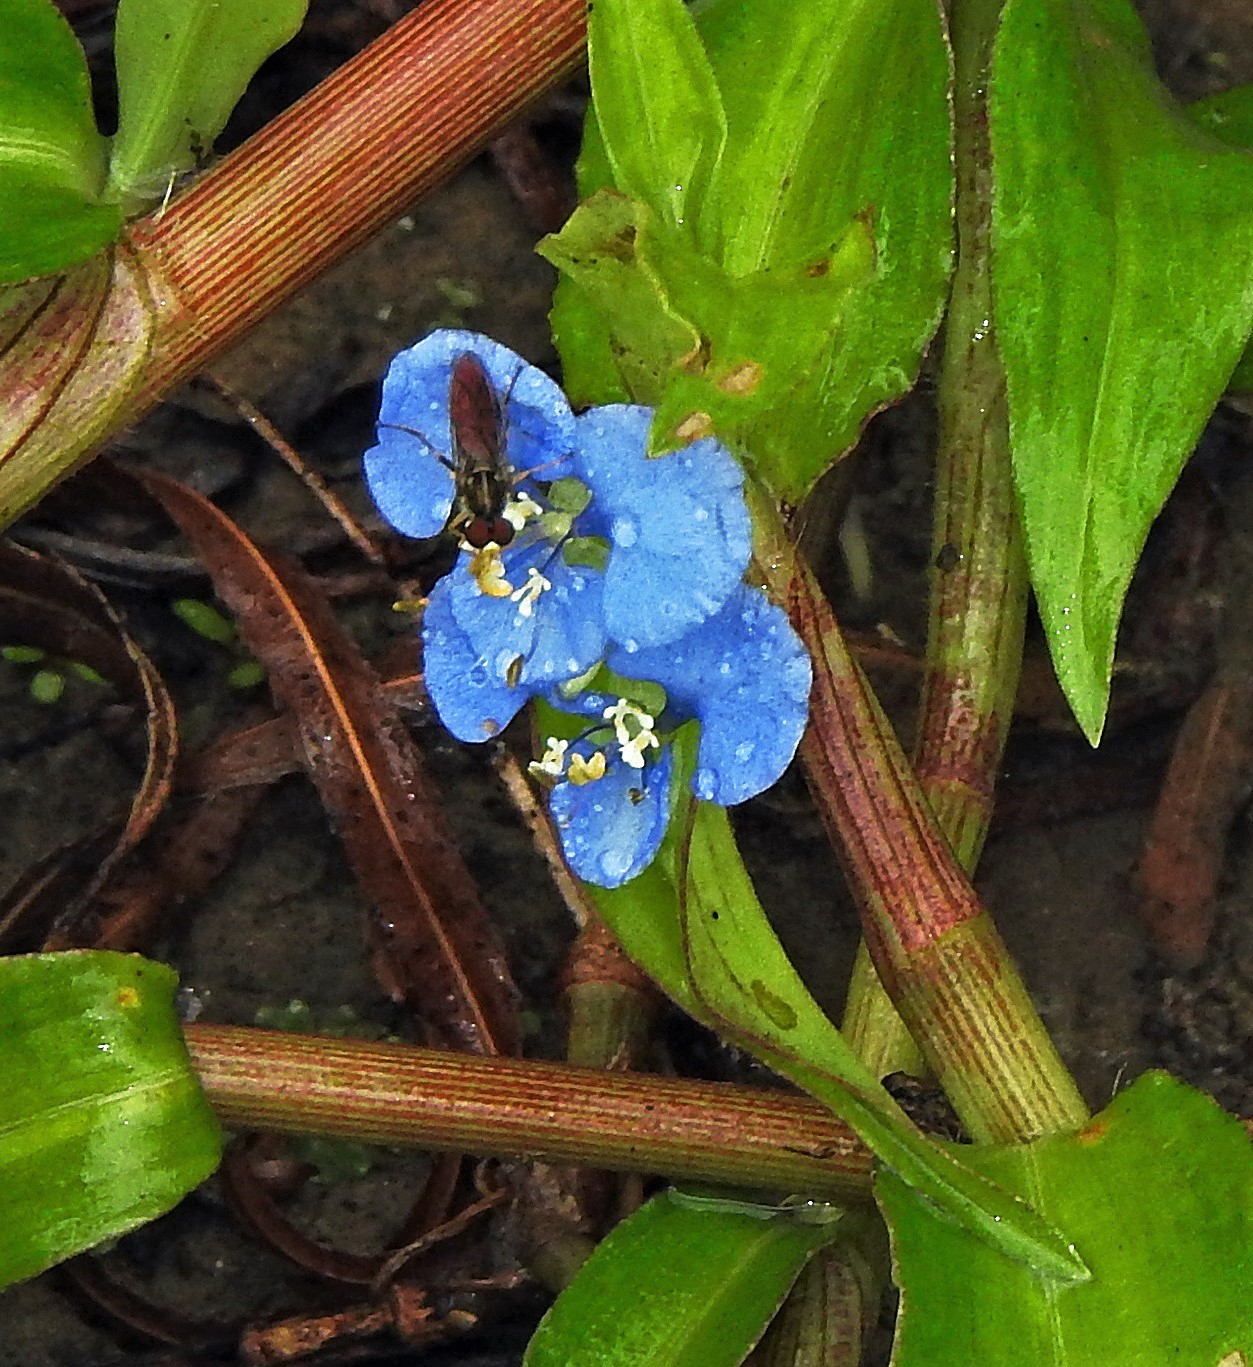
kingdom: Plantae
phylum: Tracheophyta
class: Liliopsida
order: Commelinales
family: Commelinaceae
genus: Commelina
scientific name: Commelina diffusa
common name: Climbing dayflower
